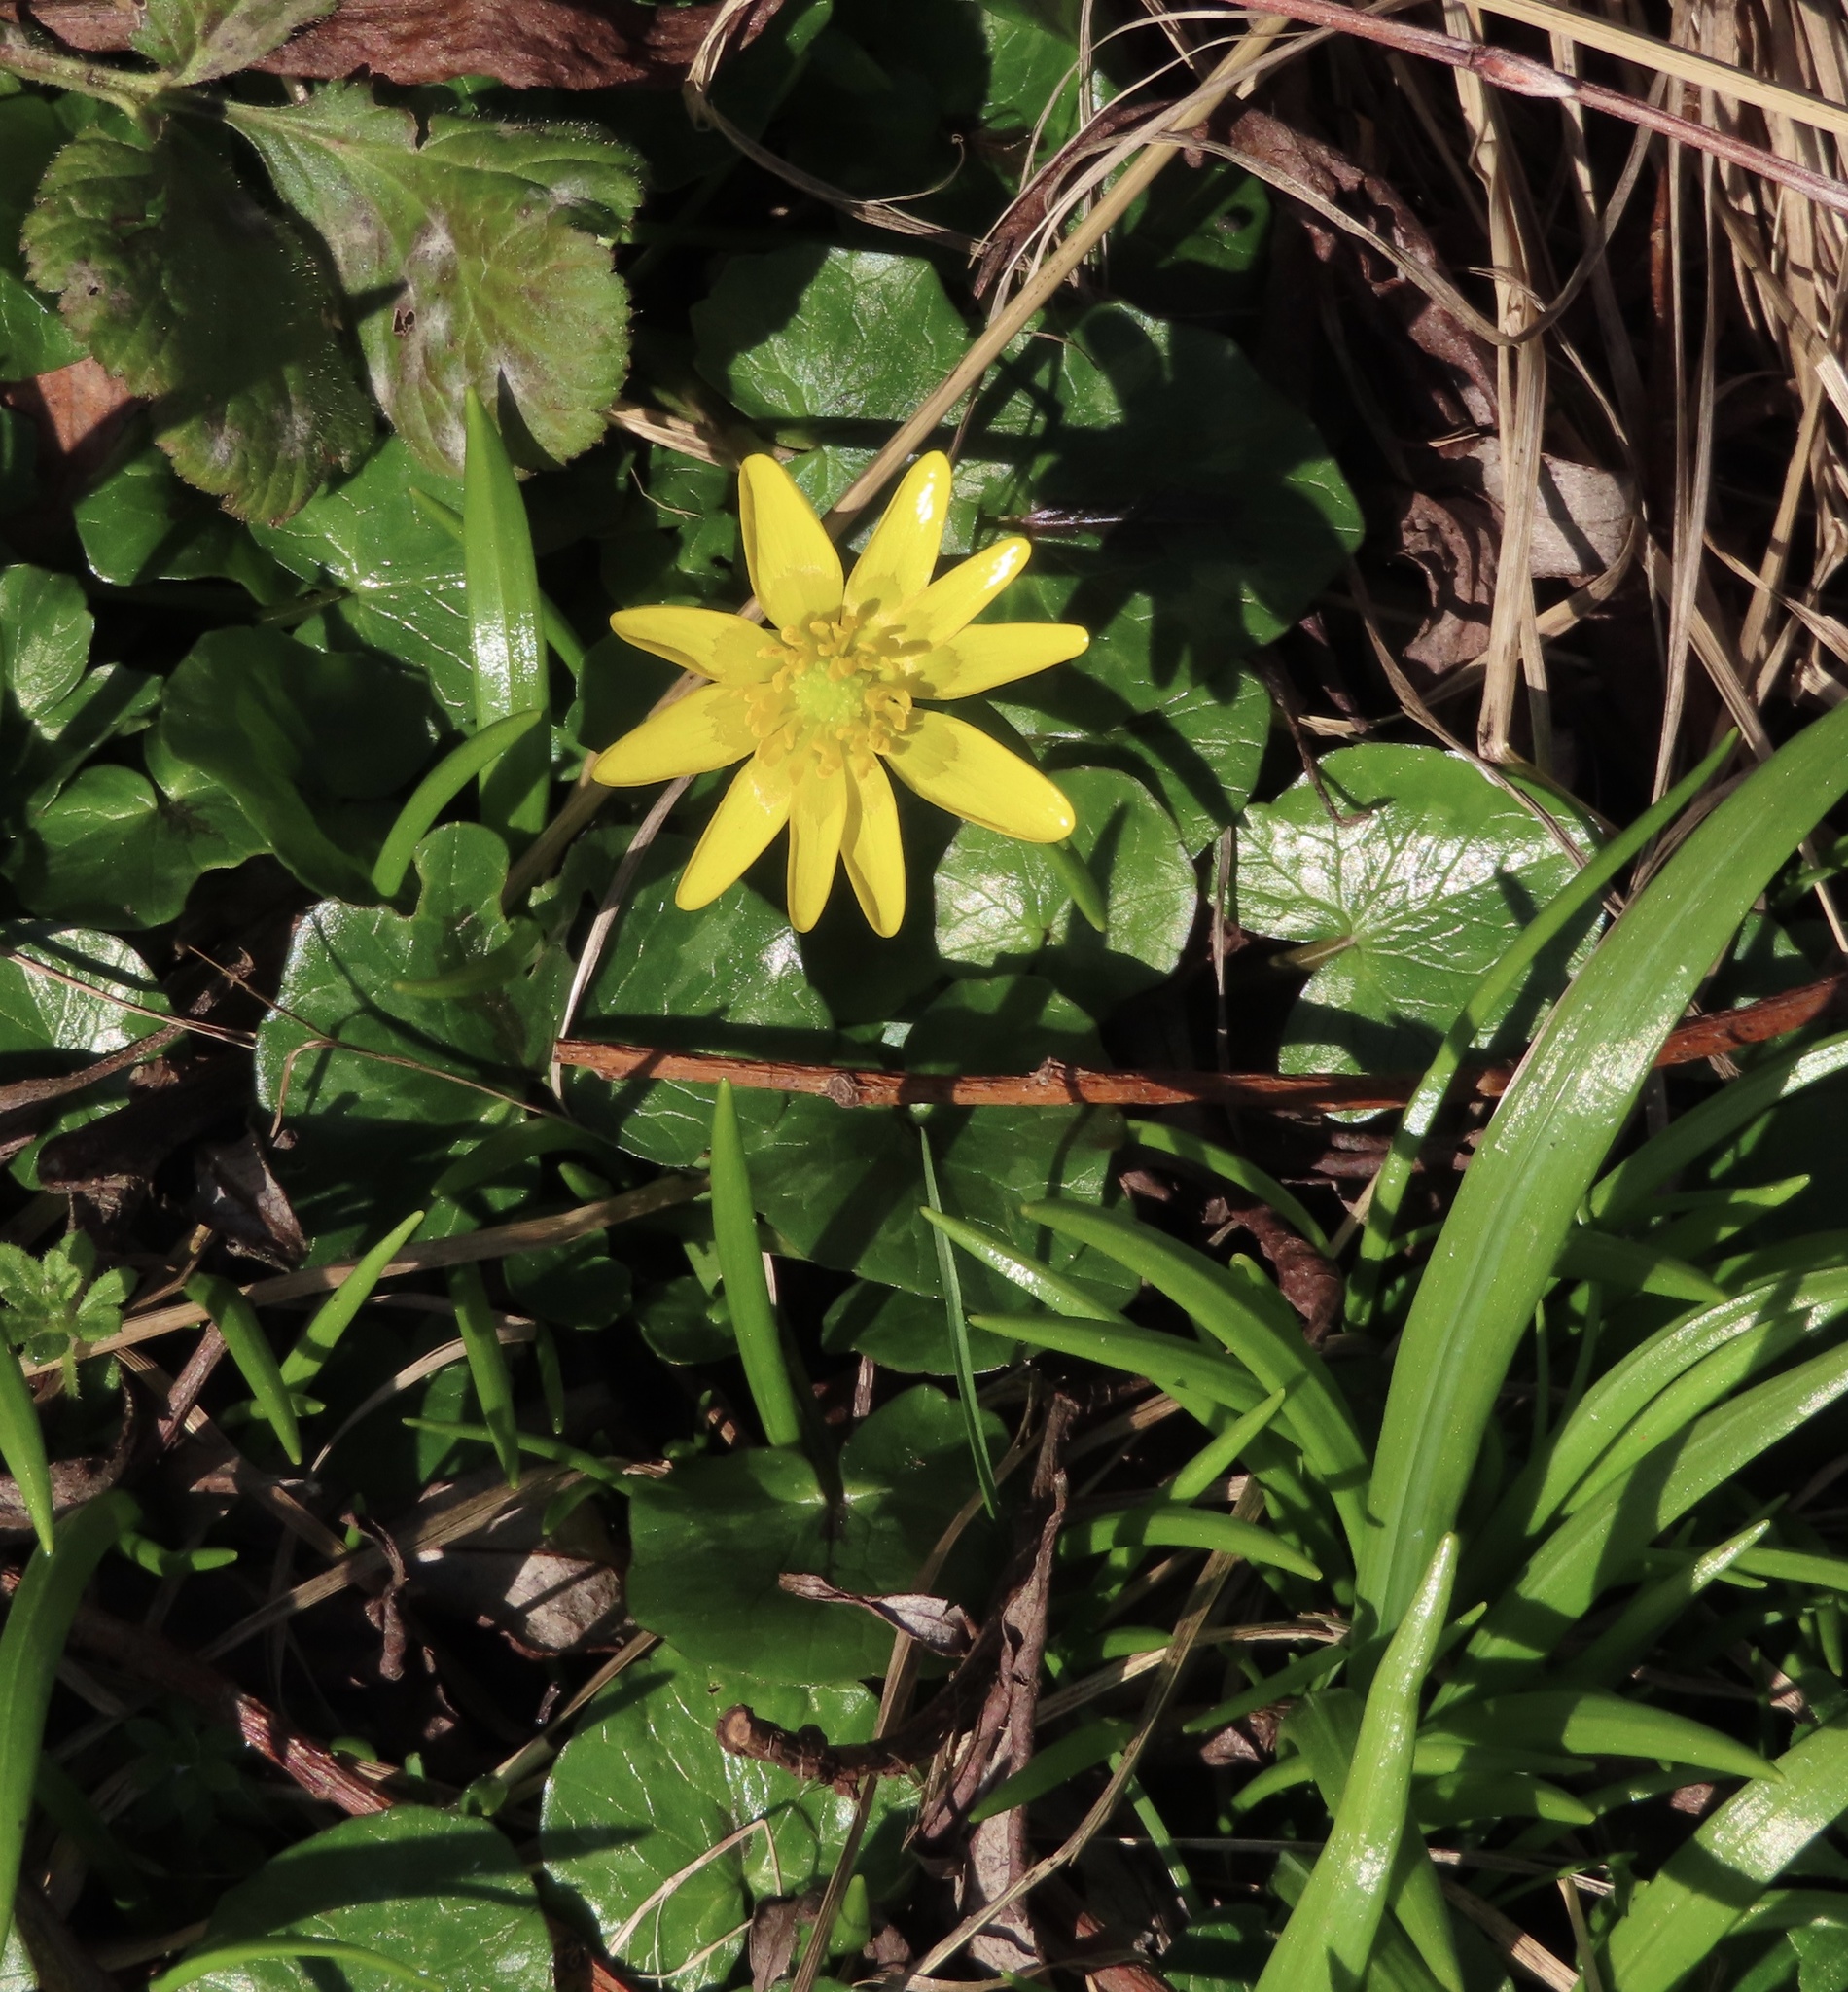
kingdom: Plantae
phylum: Tracheophyta
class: Magnoliopsida
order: Ranunculales
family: Ranunculaceae
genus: Ficaria
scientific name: Ficaria verna
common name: Lesser celandine
